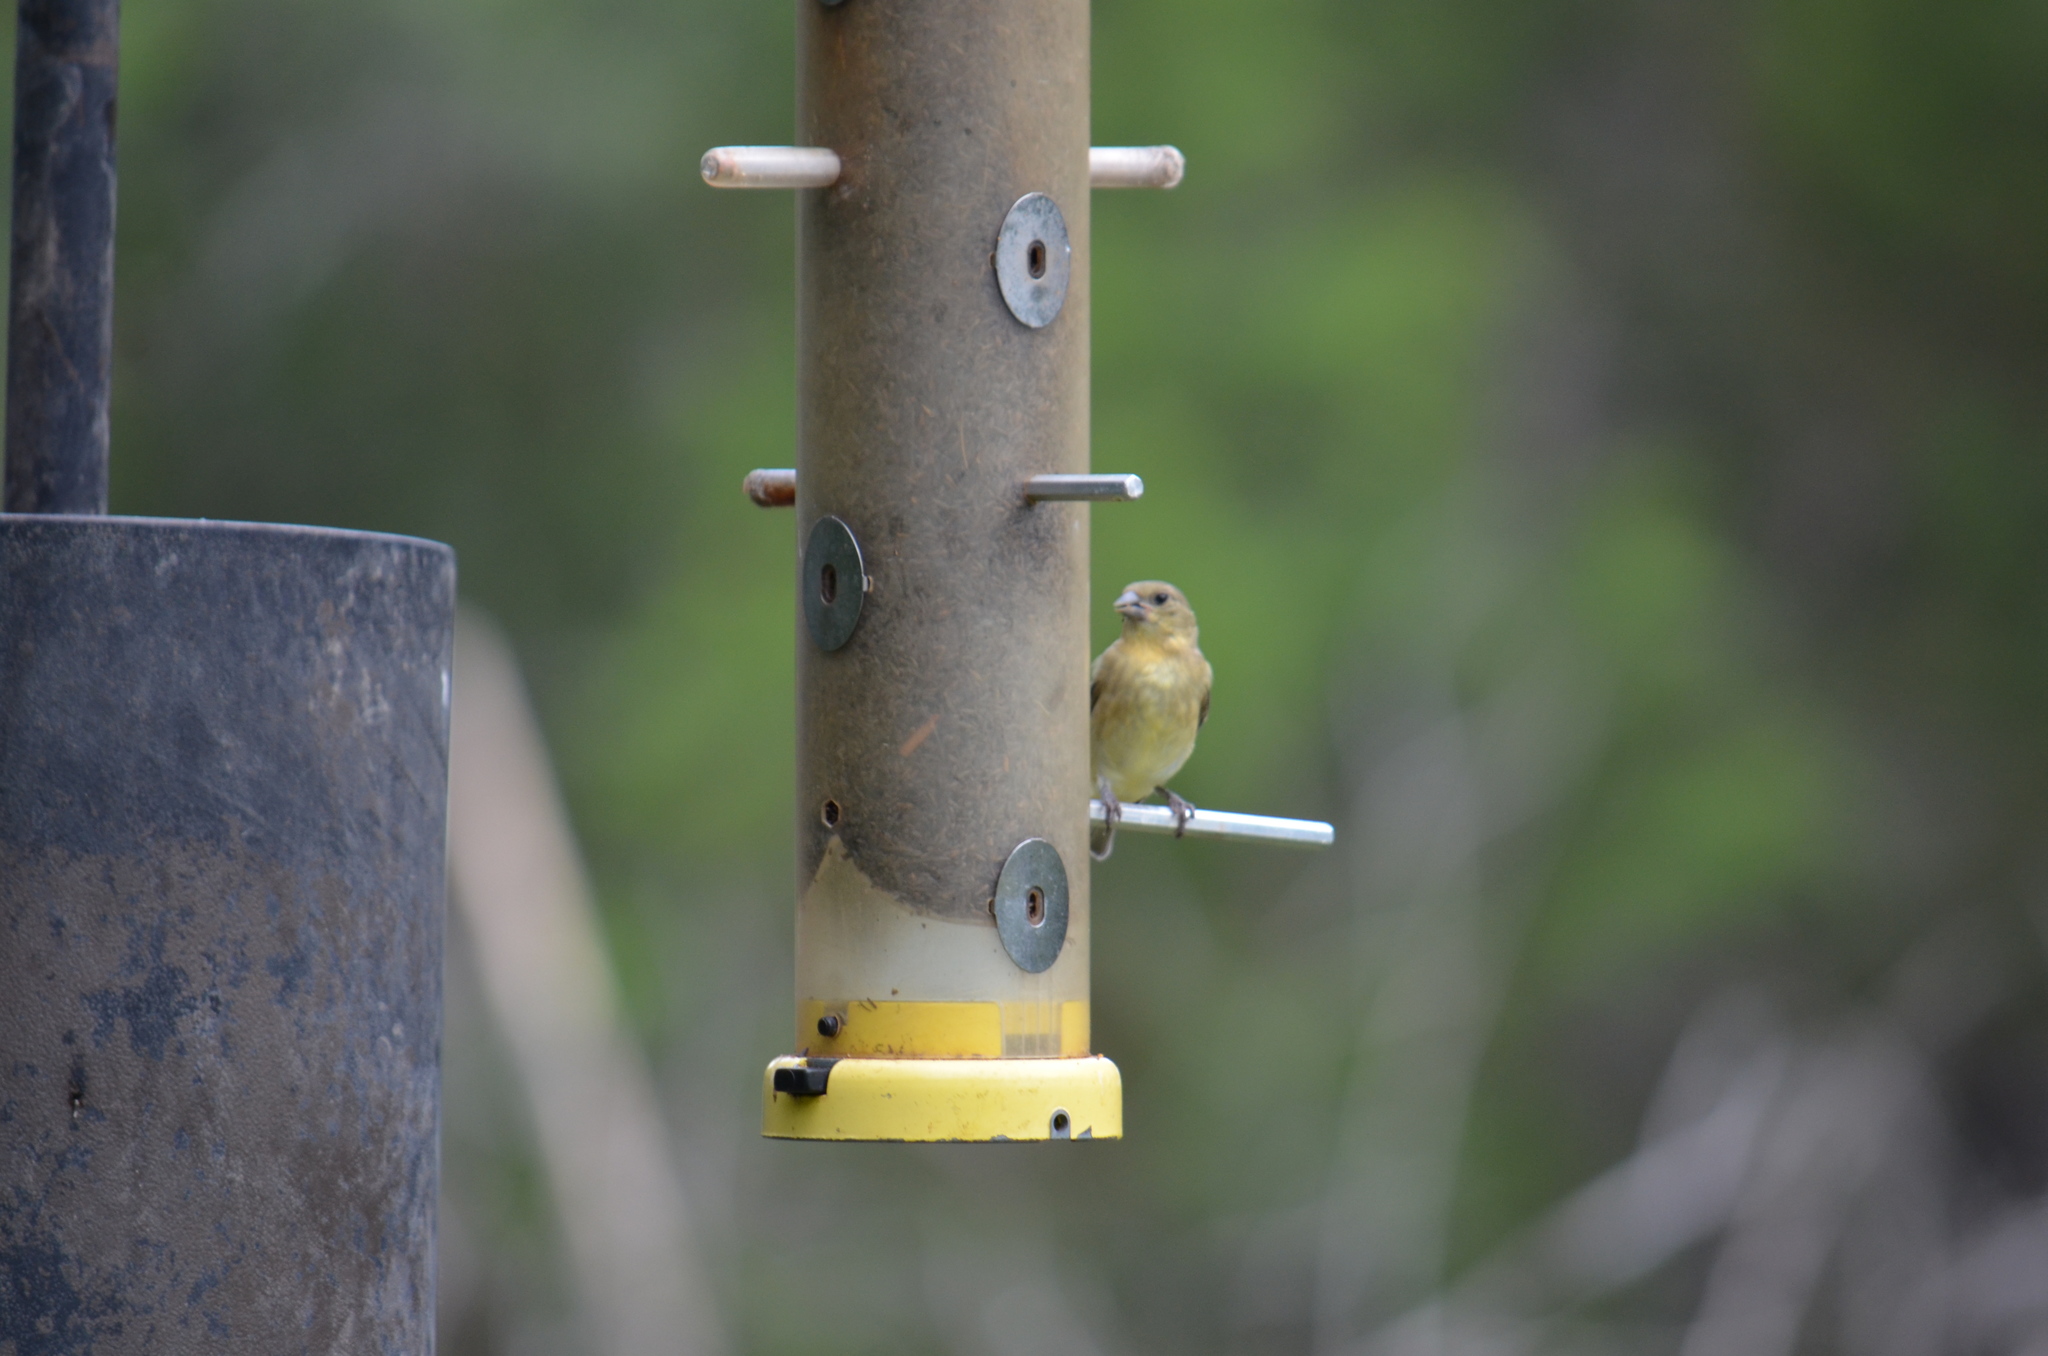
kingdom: Animalia
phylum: Chordata
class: Aves
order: Passeriformes
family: Fringillidae
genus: Spinus
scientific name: Spinus psaltria
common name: Lesser goldfinch
